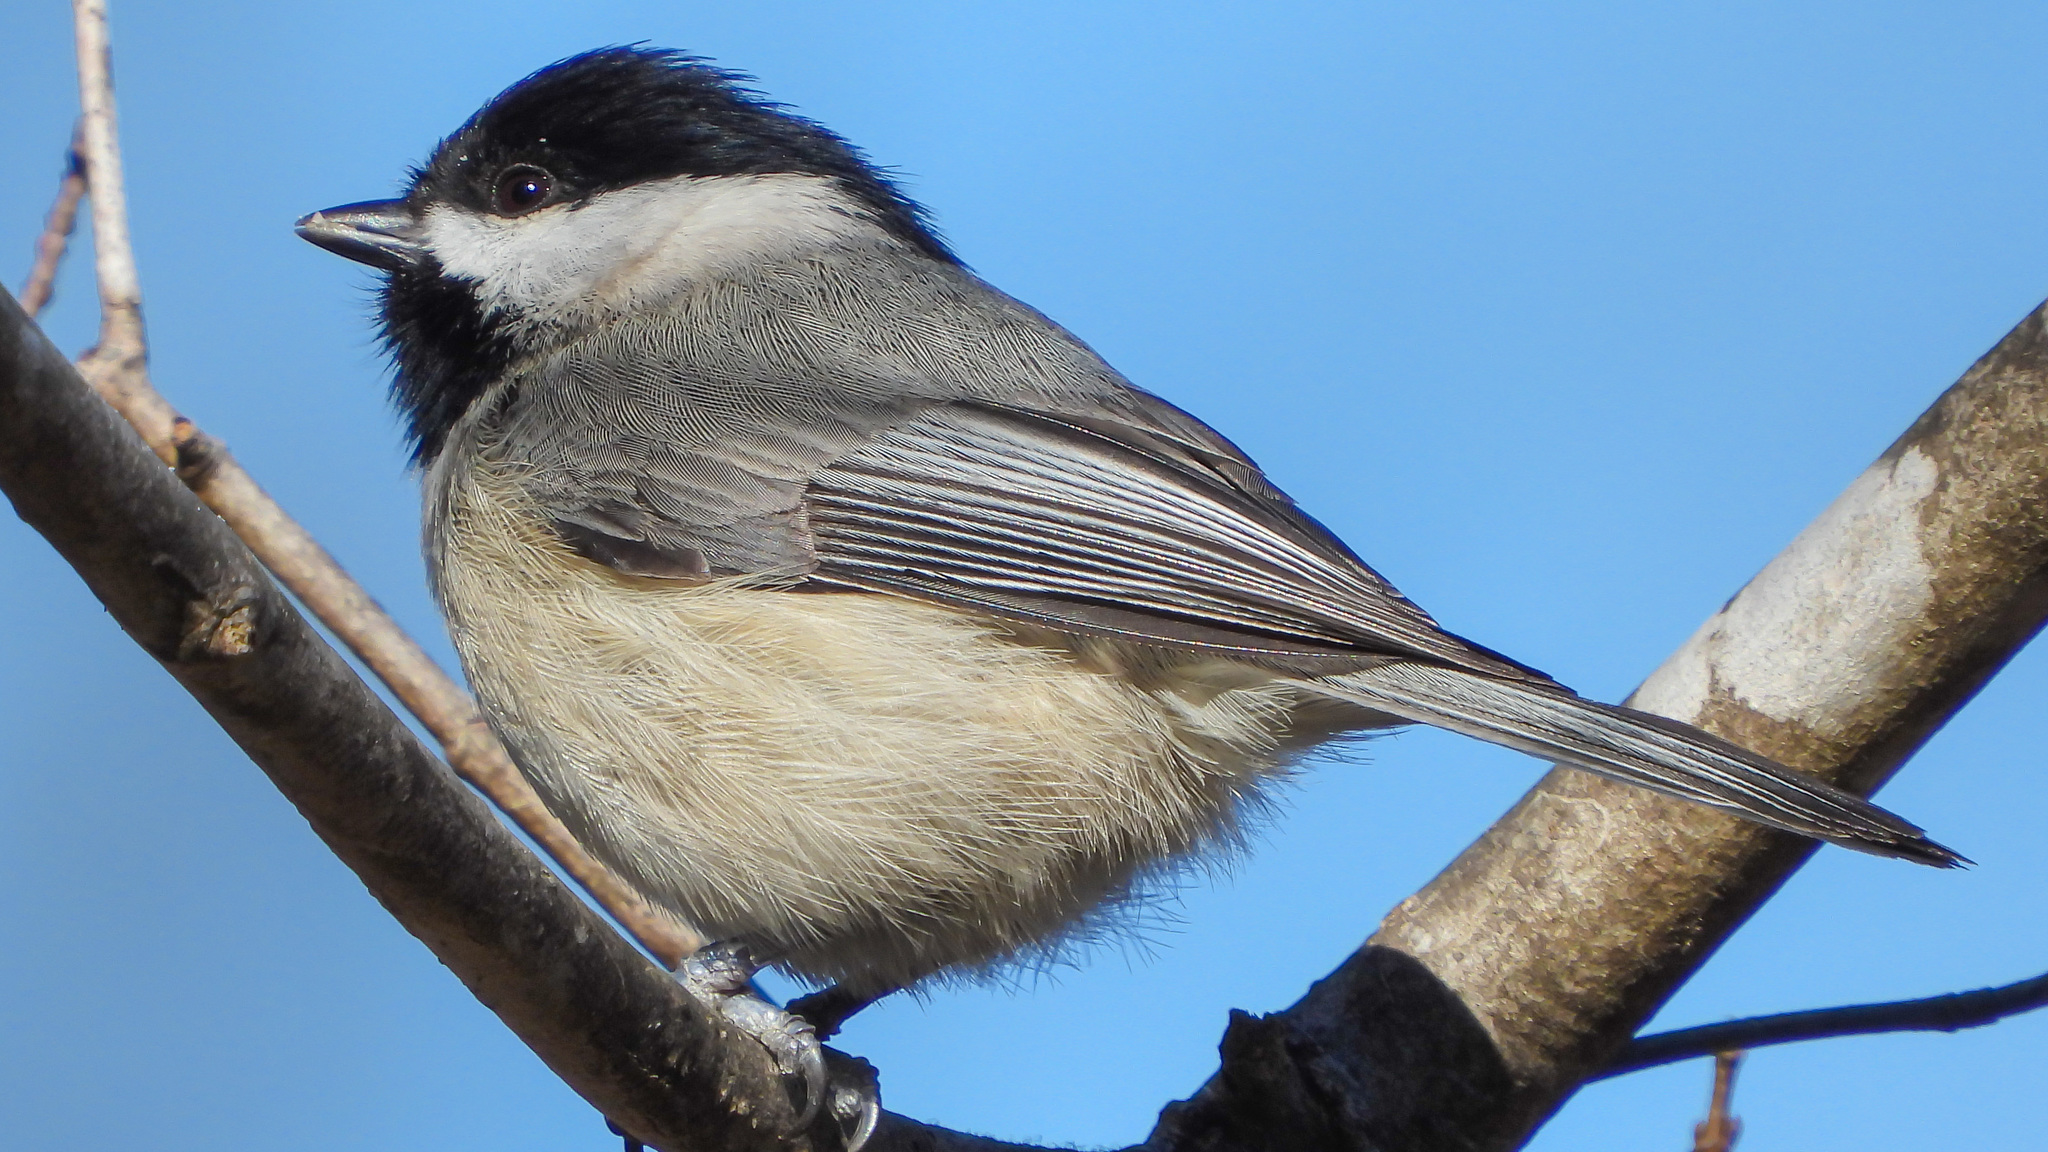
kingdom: Animalia
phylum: Chordata
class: Aves
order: Passeriformes
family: Paridae
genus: Poecile
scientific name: Poecile carolinensis
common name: Carolina chickadee
